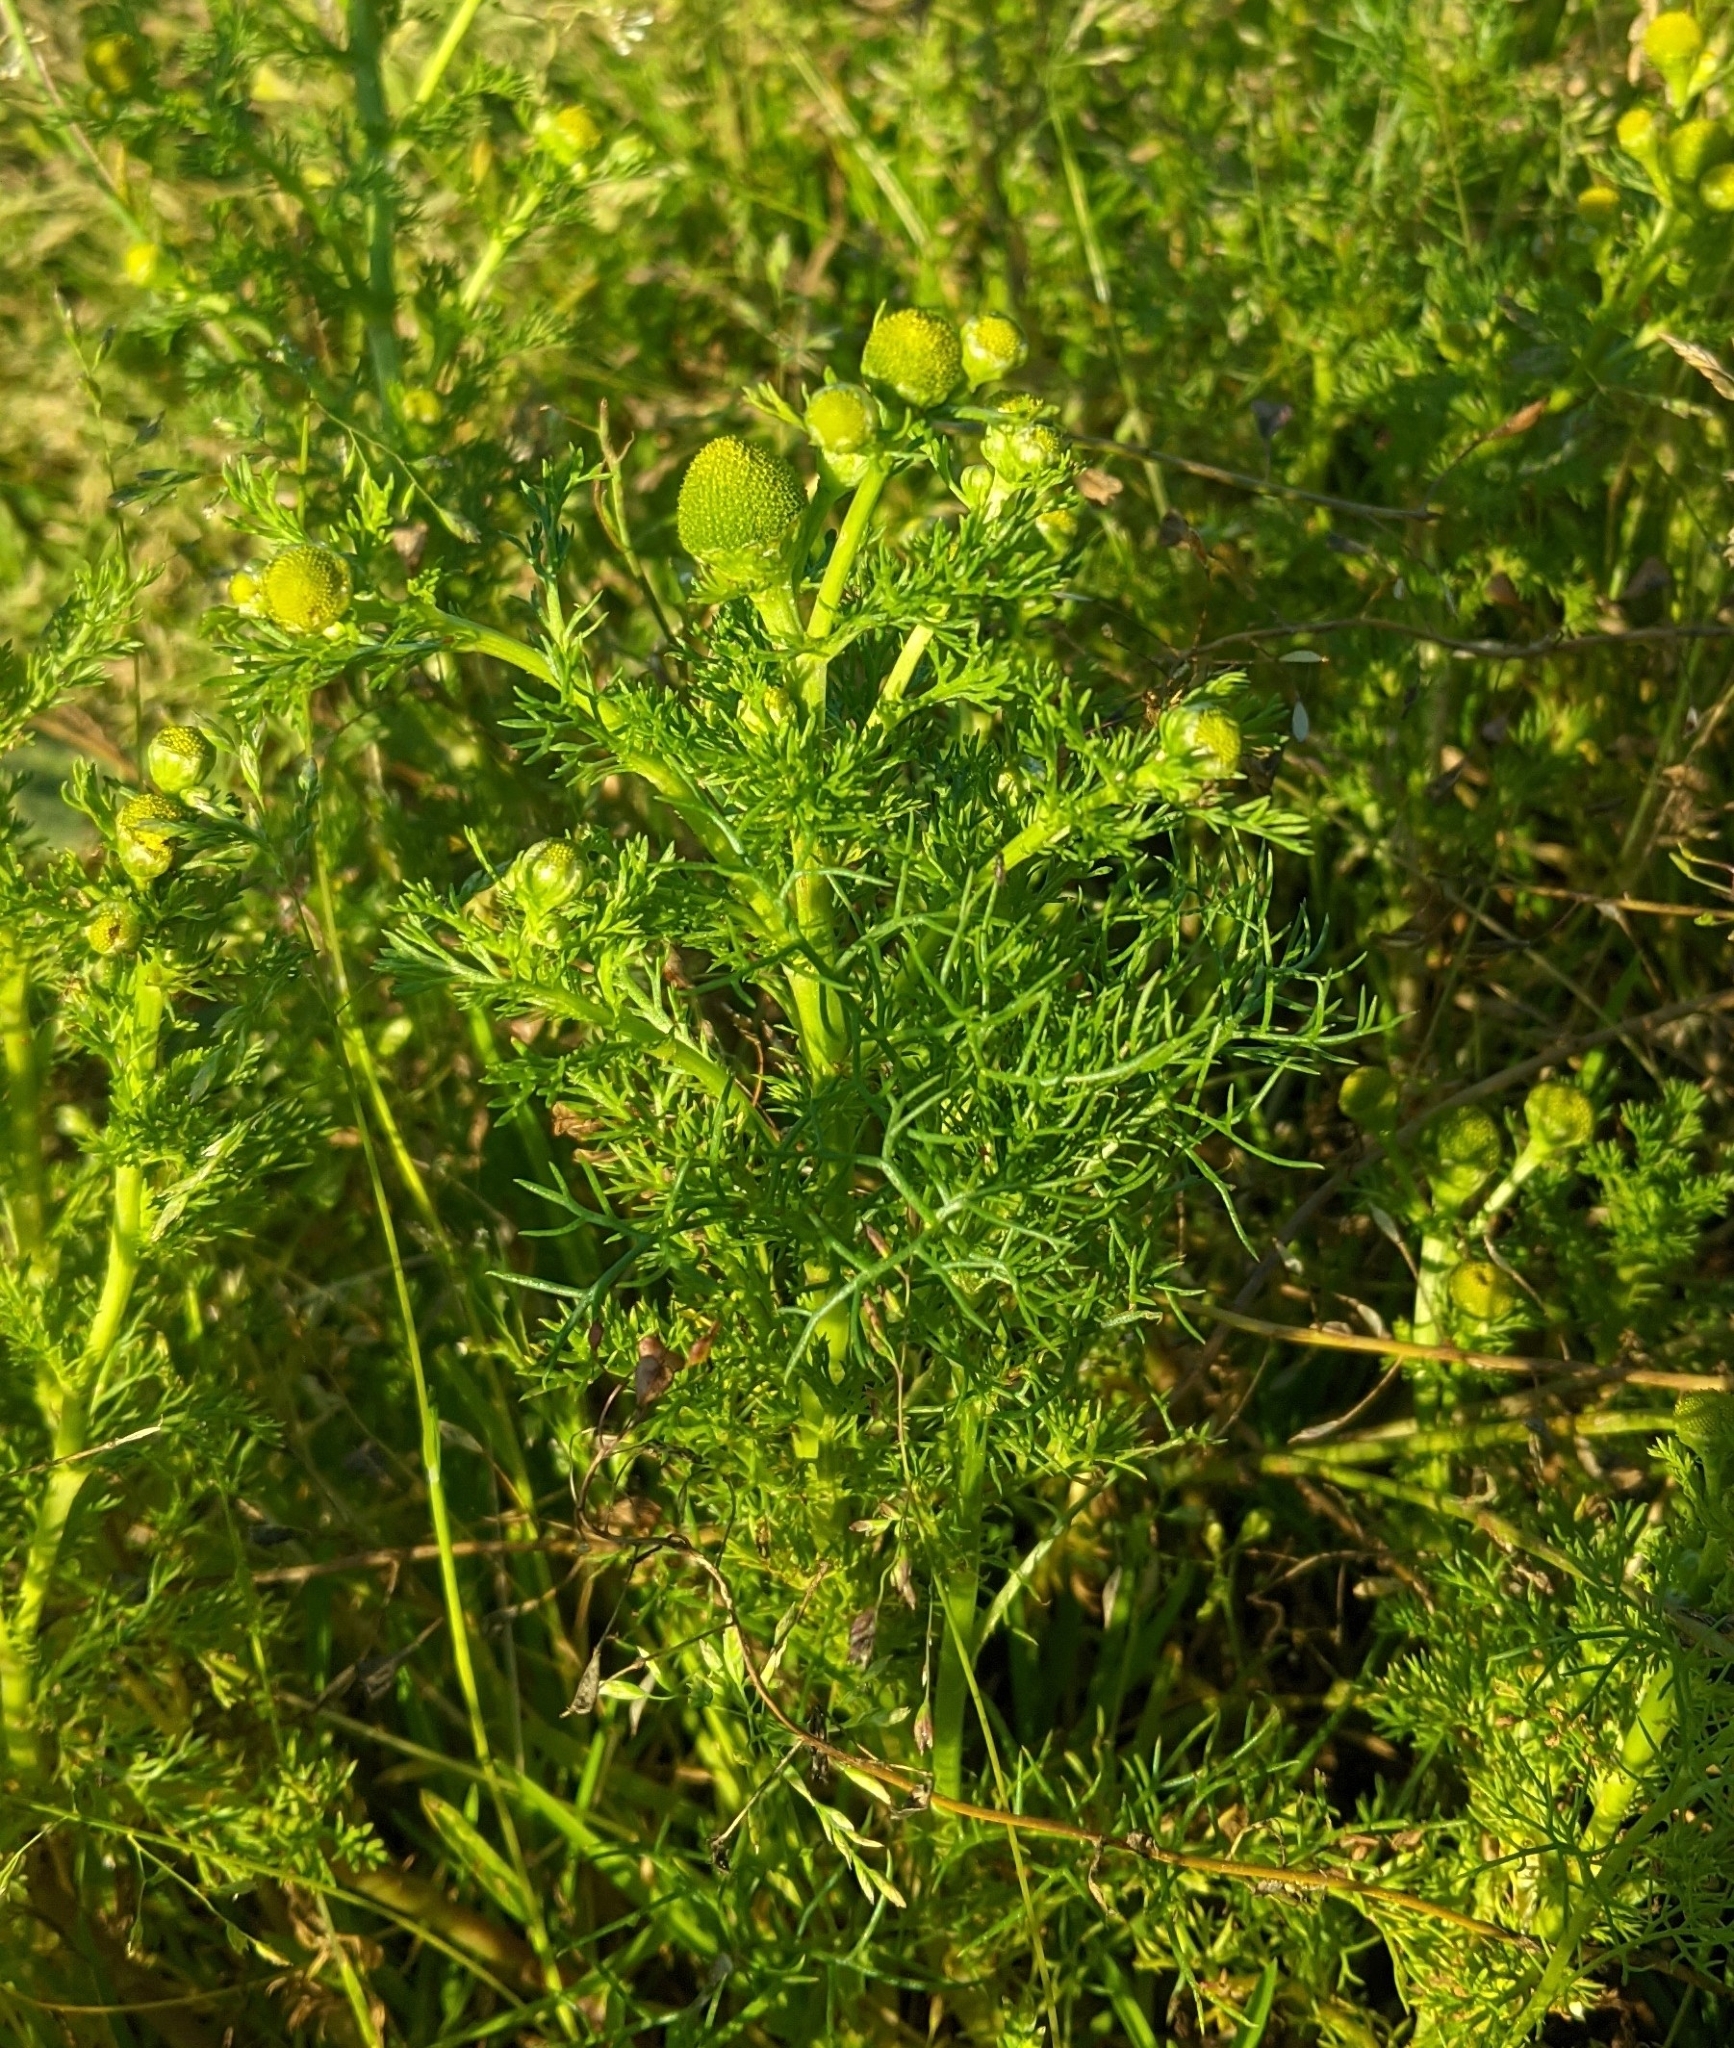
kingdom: Plantae
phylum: Tracheophyta
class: Magnoliopsida
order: Asterales
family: Asteraceae
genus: Matricaria
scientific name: Matricaria discoidea
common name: Disc mayweed
